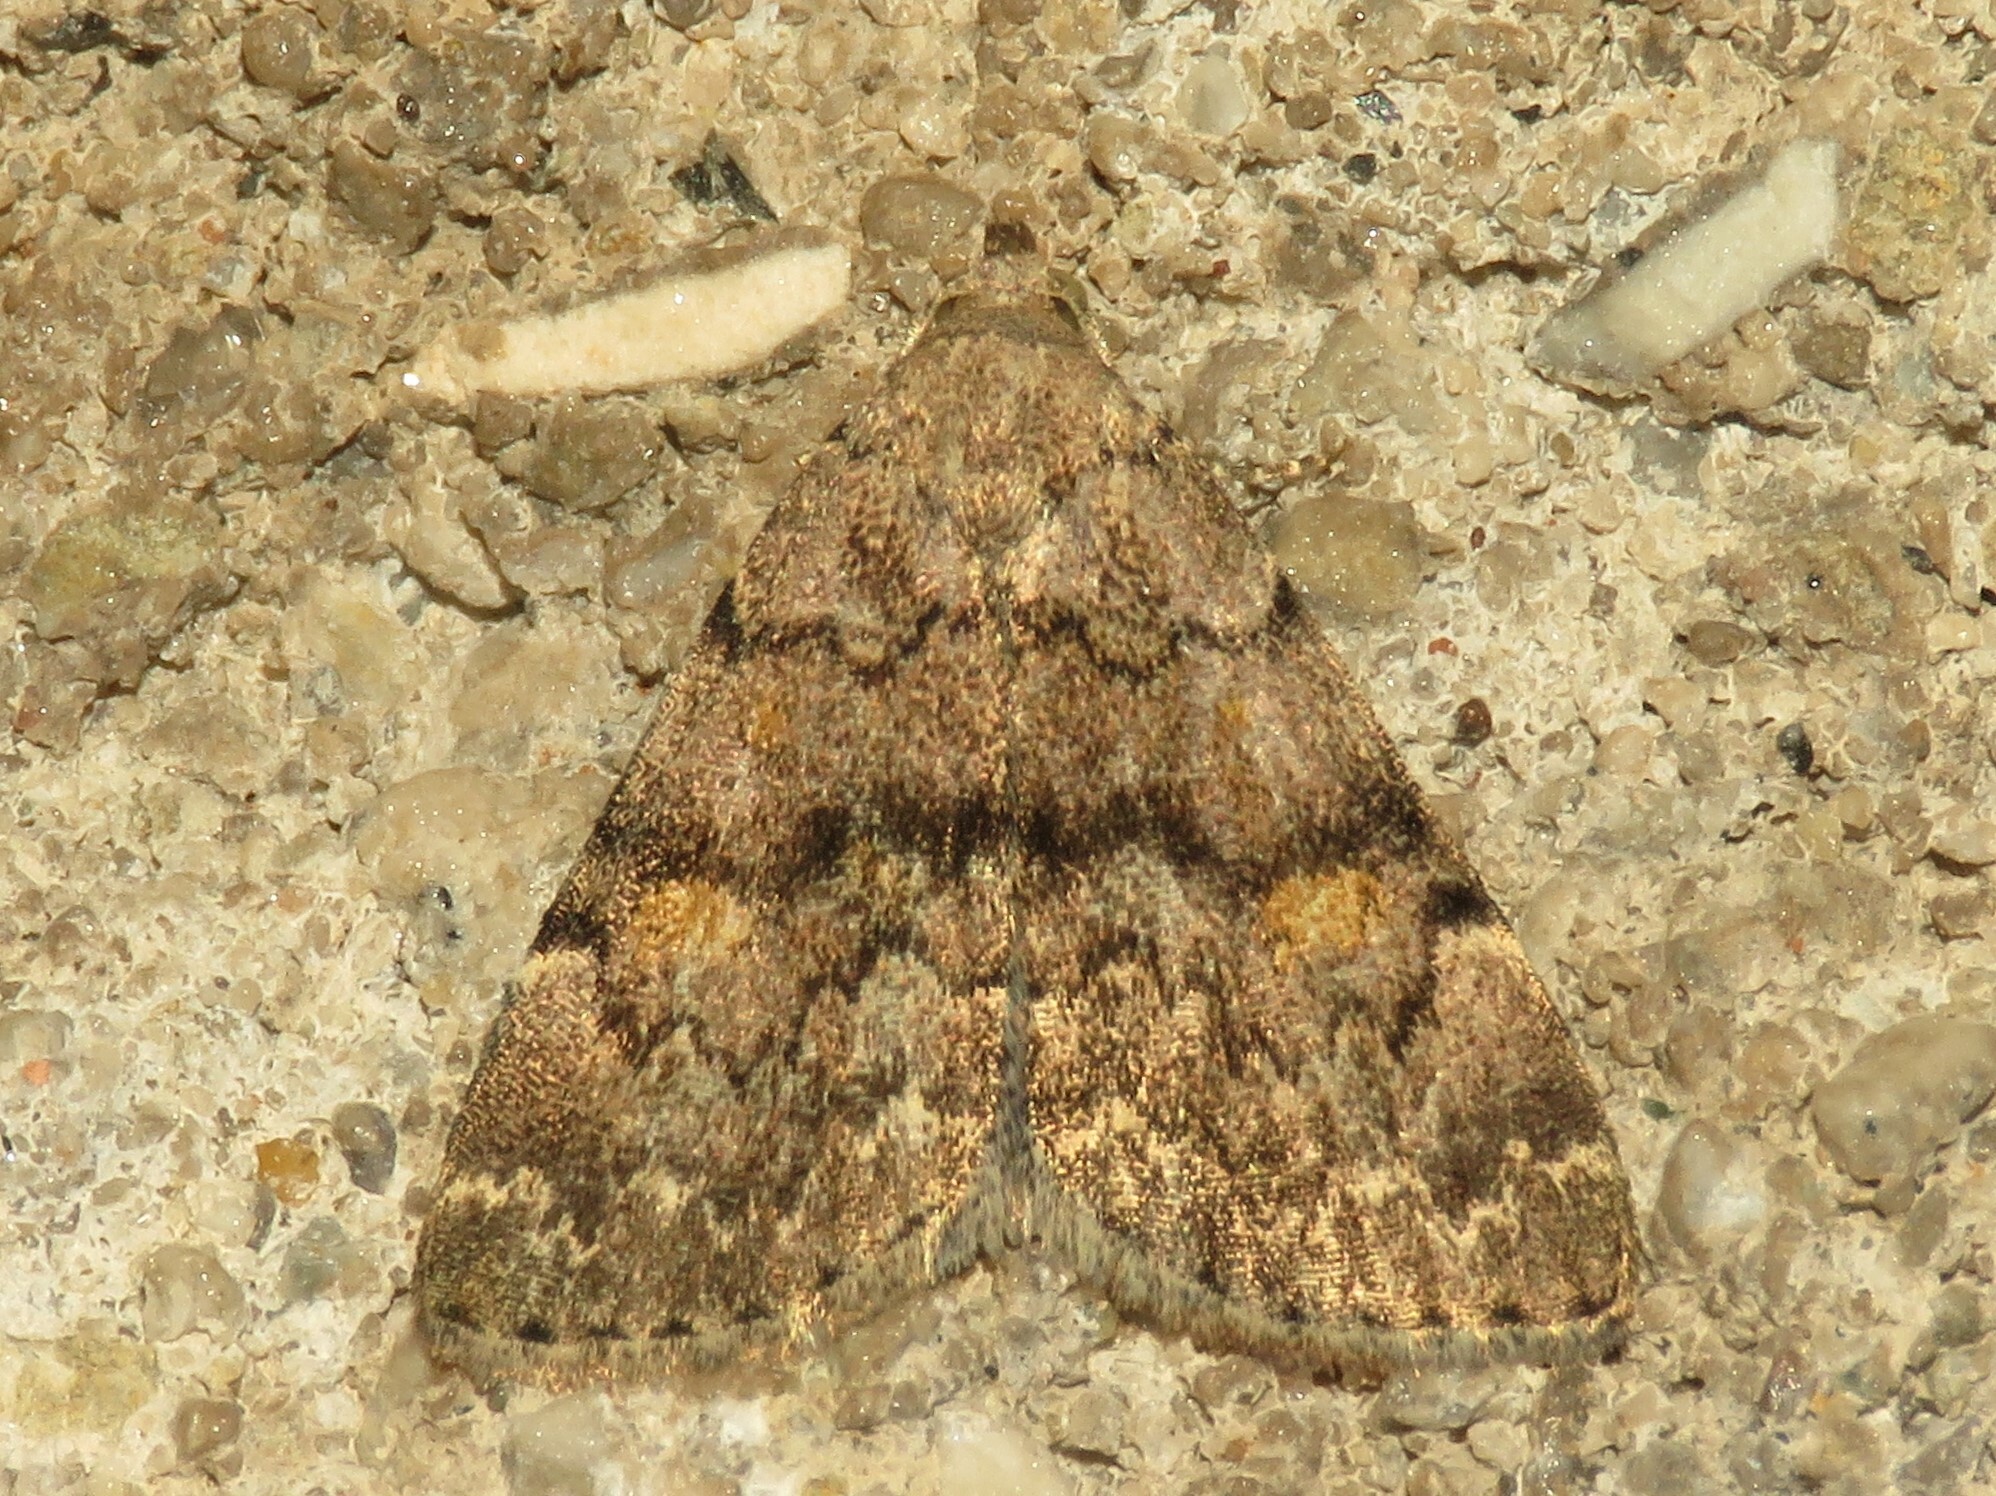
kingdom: Animalia
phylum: Arthropoda
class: Insecta
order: Lepidoptera
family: Erebidae
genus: Idia
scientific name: Idia aemula
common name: Common idia moth
